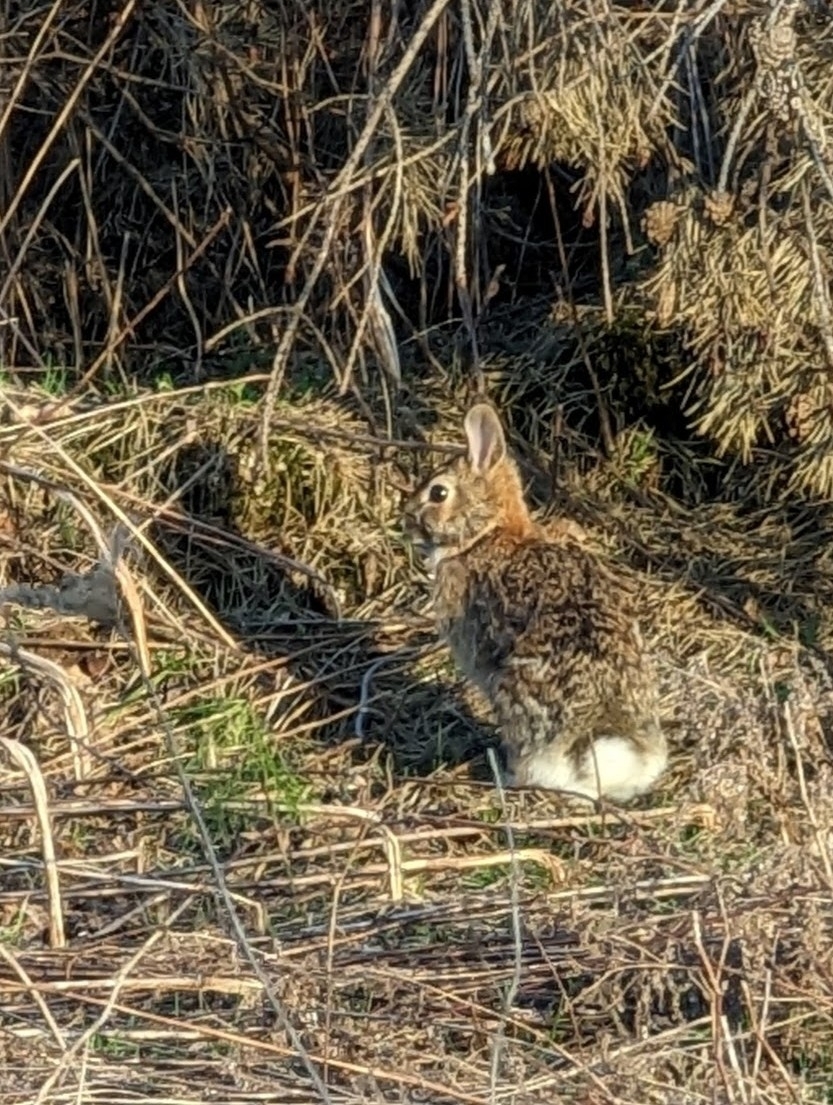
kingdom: Animalia
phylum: Chordata
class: Mammalia
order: Lagomorpha
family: Leporidae
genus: Sylvilagus
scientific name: Sylvilagus floridanus
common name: Eastern cottontail
